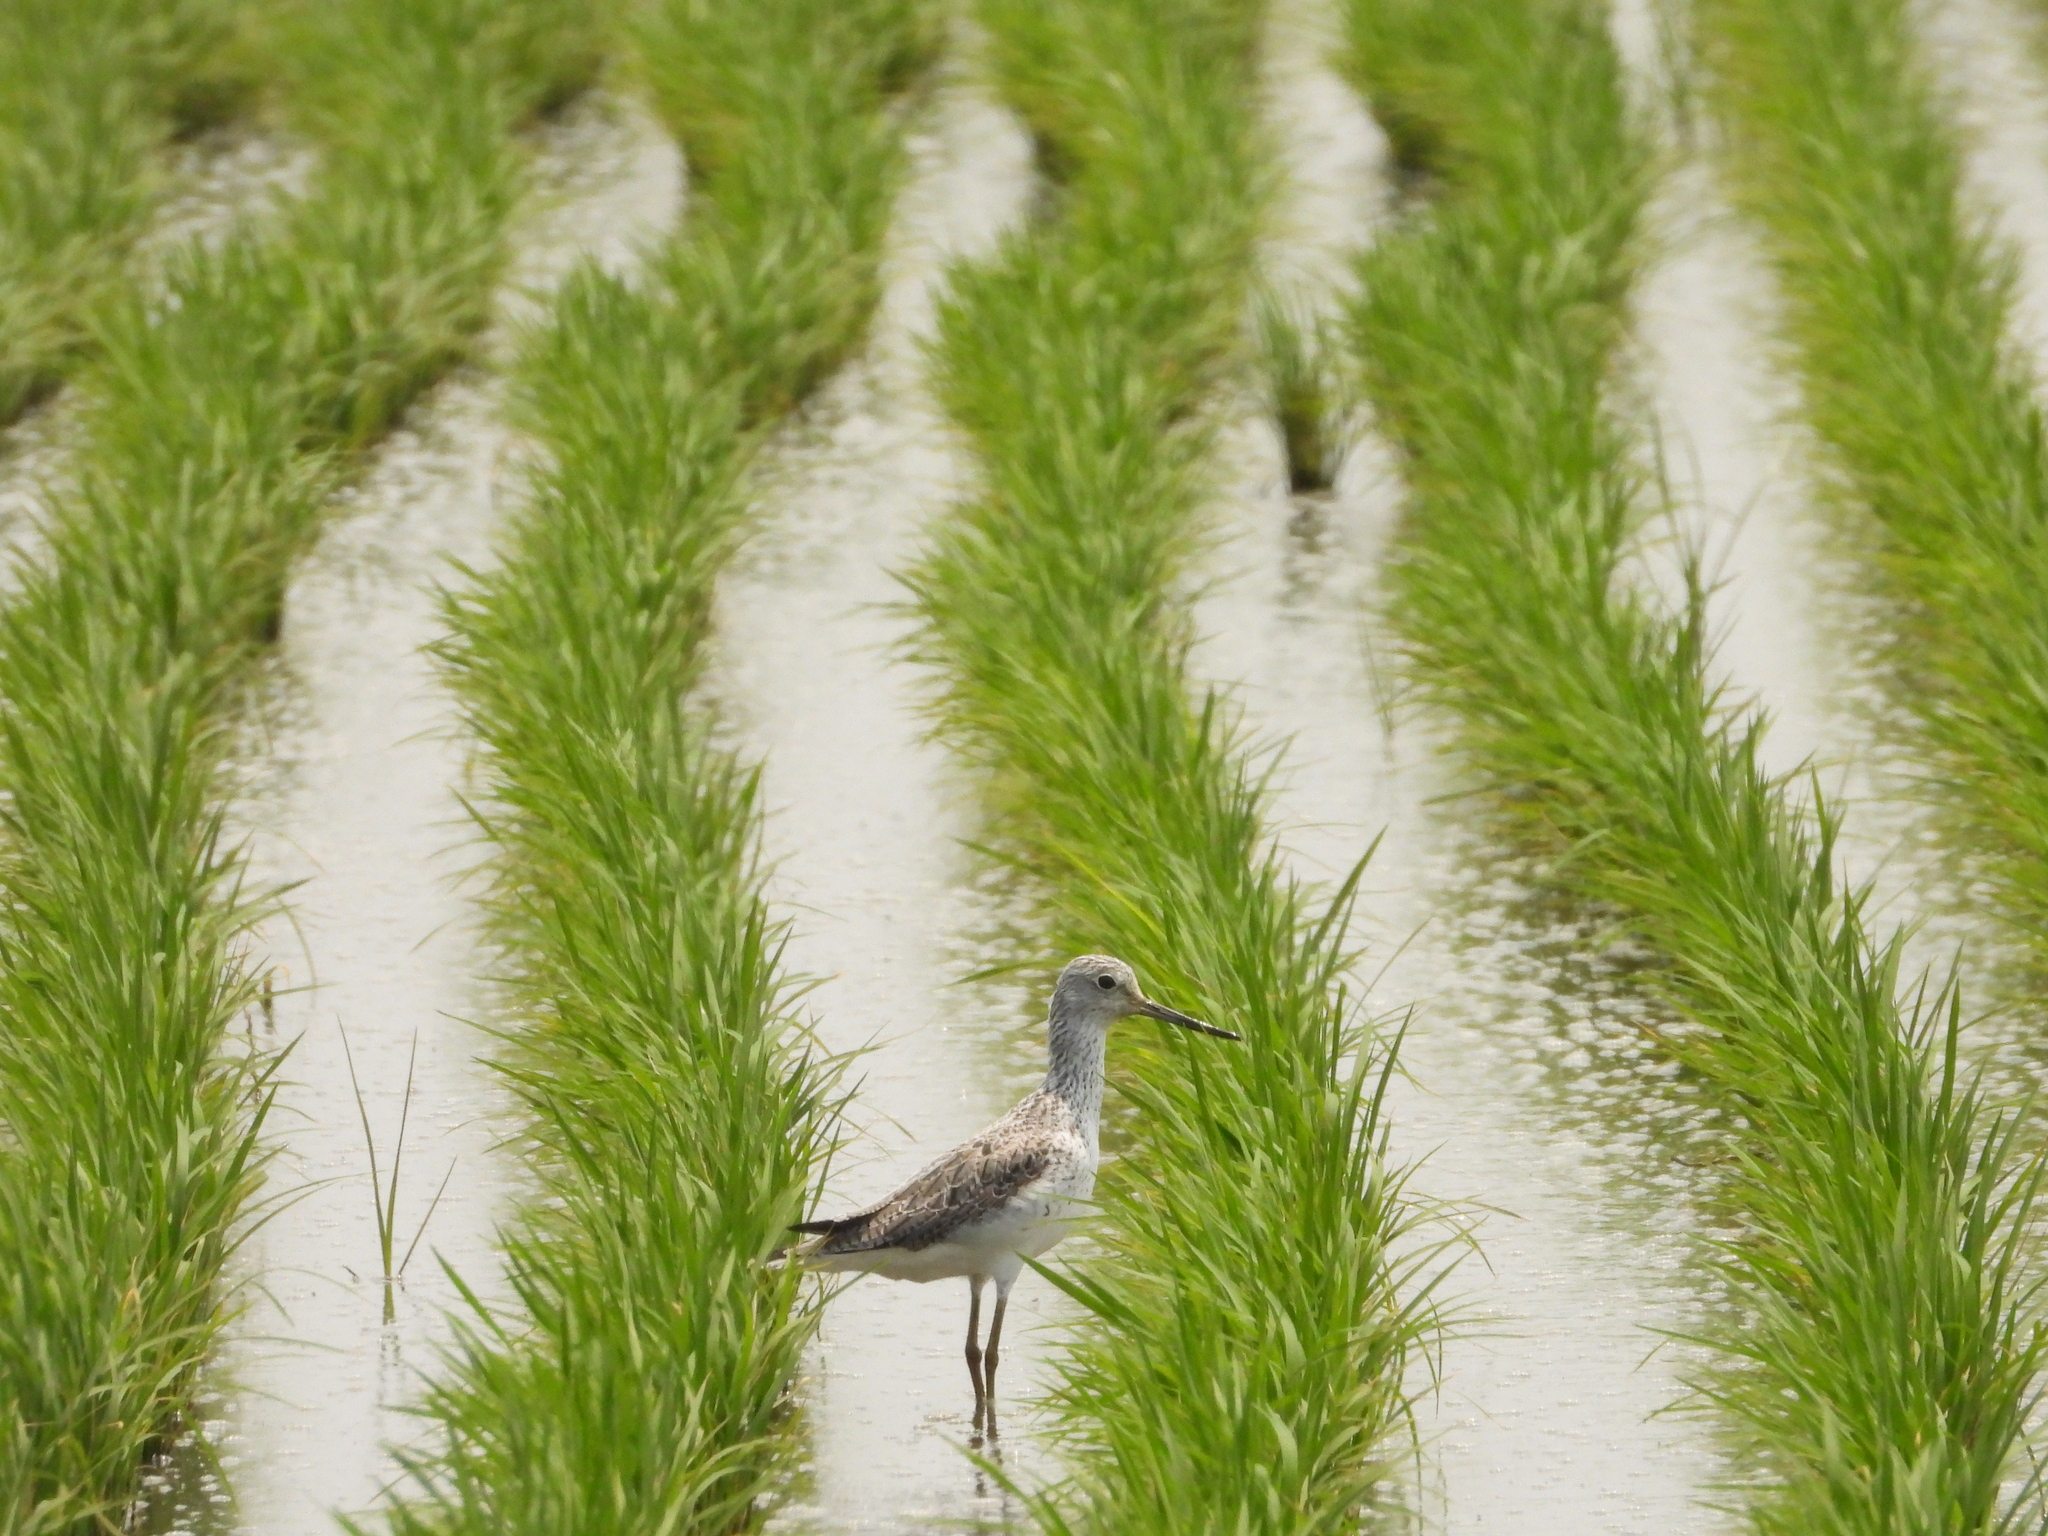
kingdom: Animalia
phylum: Chordata
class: Aves
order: Charadriiformes
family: Scolopacidae
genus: Tringa
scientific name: Tringa nebularia
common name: Common greenshank
